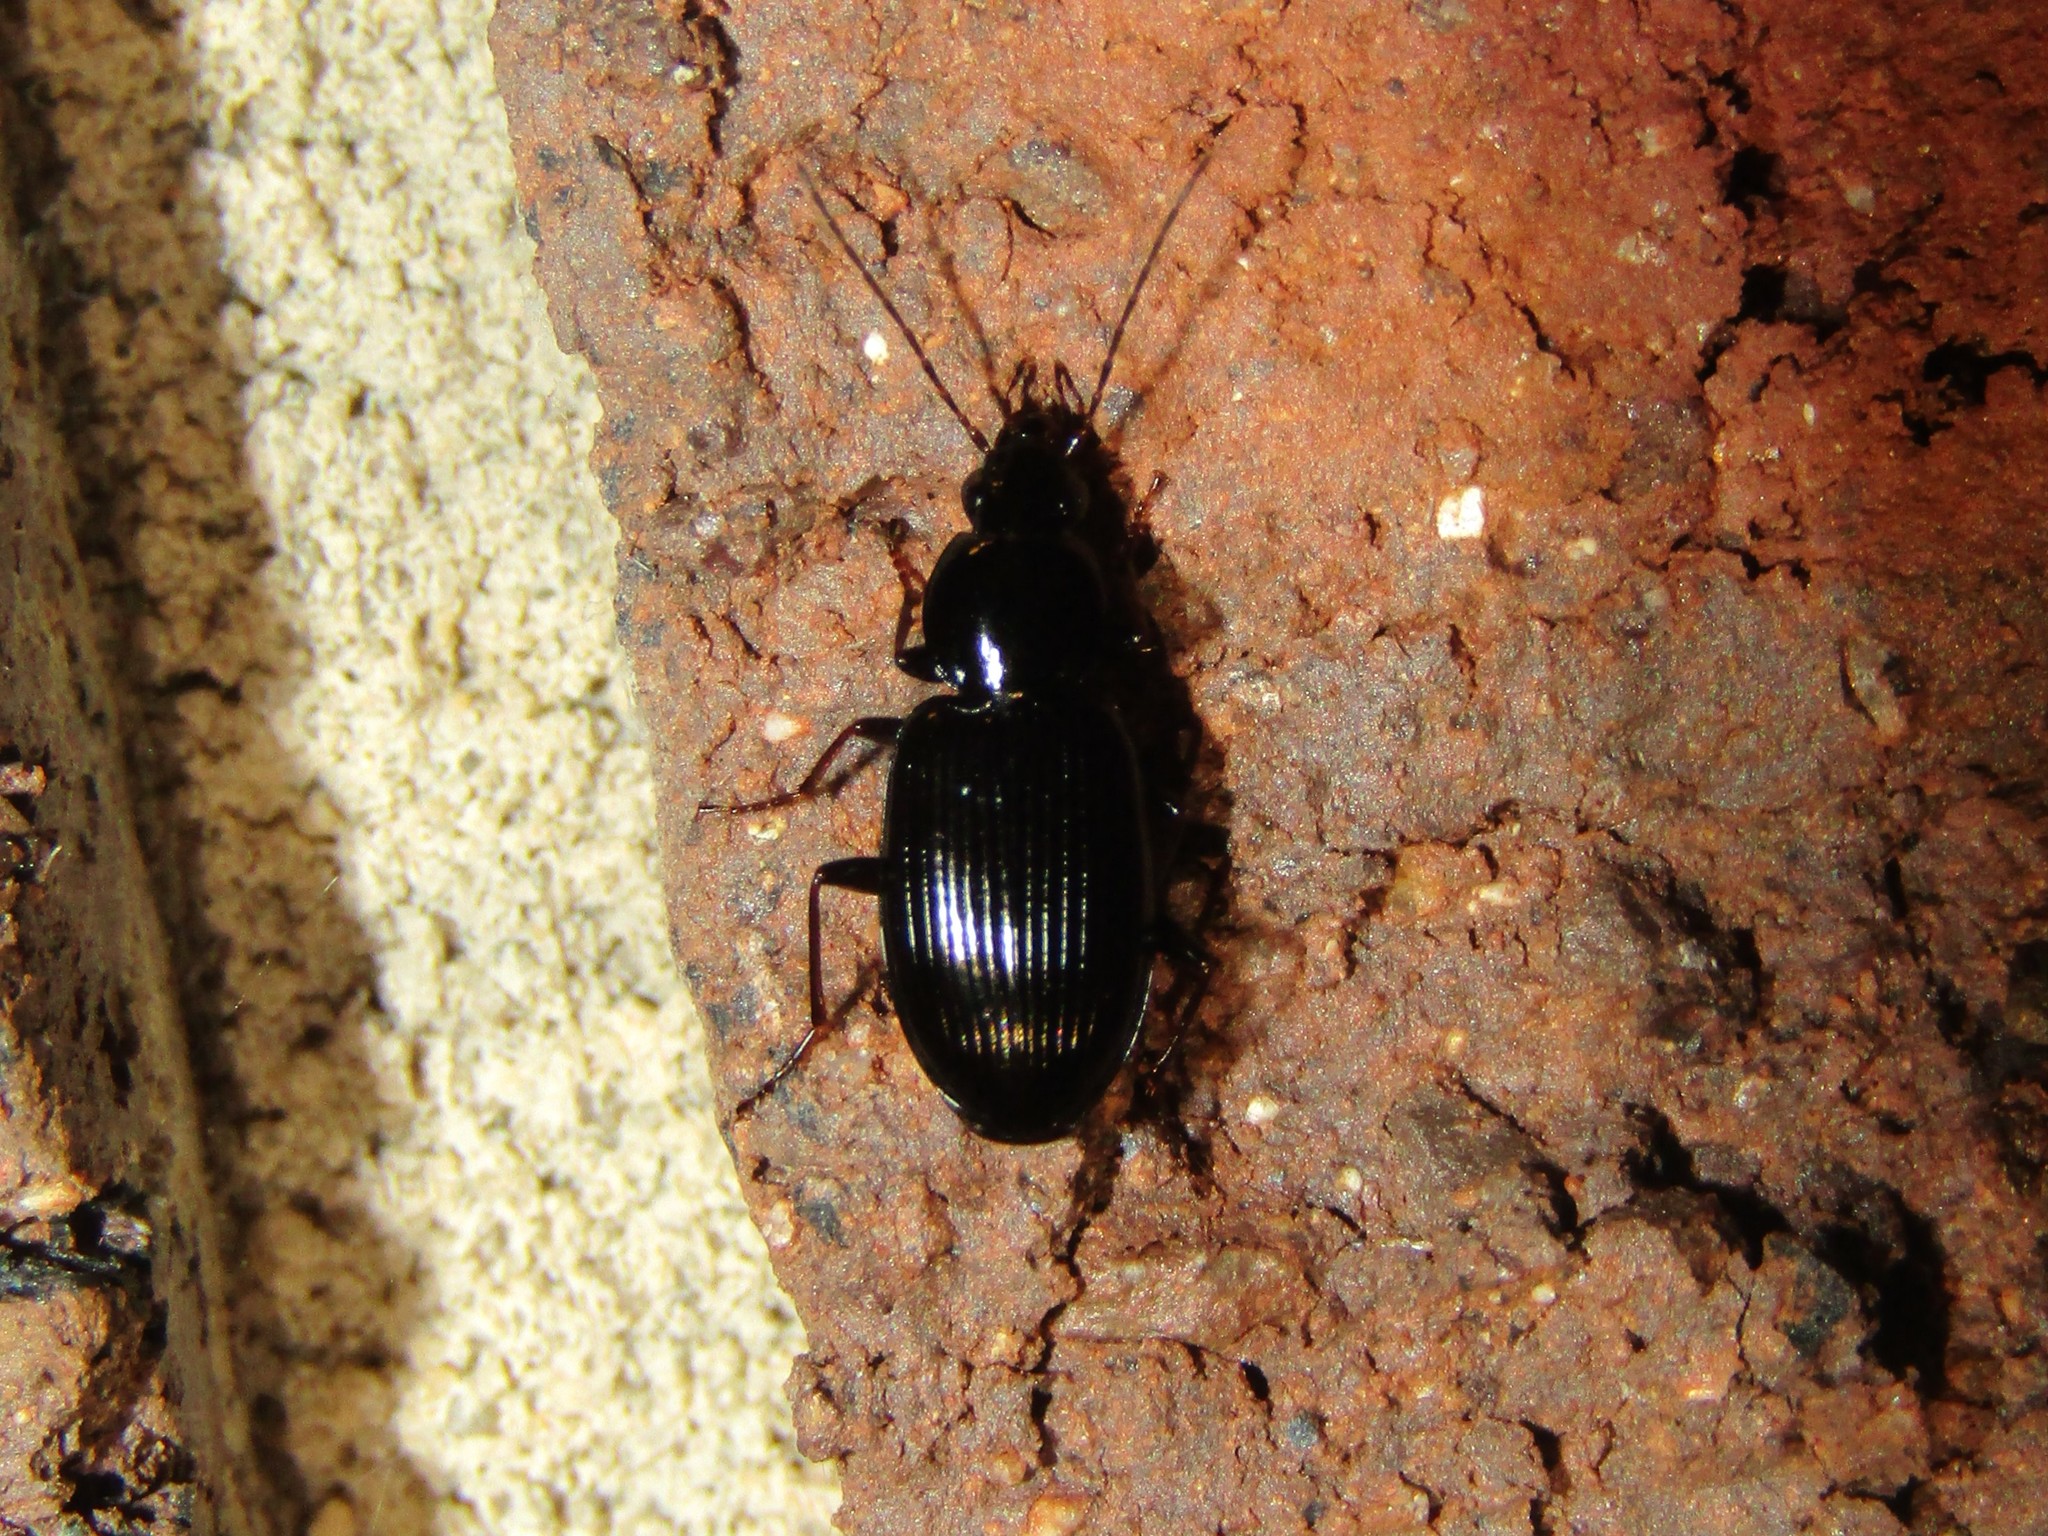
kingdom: Animalia
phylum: Arthropoda
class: Insecta
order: Coleoptera
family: Carabidae
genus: Agonum
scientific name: Agonum punctiforme
